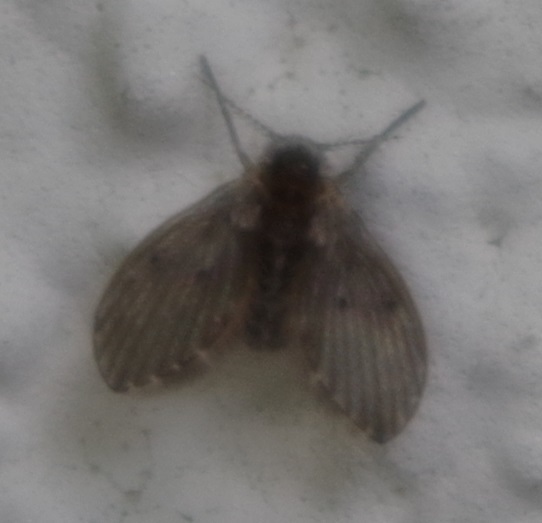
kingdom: Animalia
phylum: Arthropoda
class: Insecta
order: Diptera
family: Psychodidae
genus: Clogmia
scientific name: Clogmia albipunctatus
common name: White-spotted moth fly
